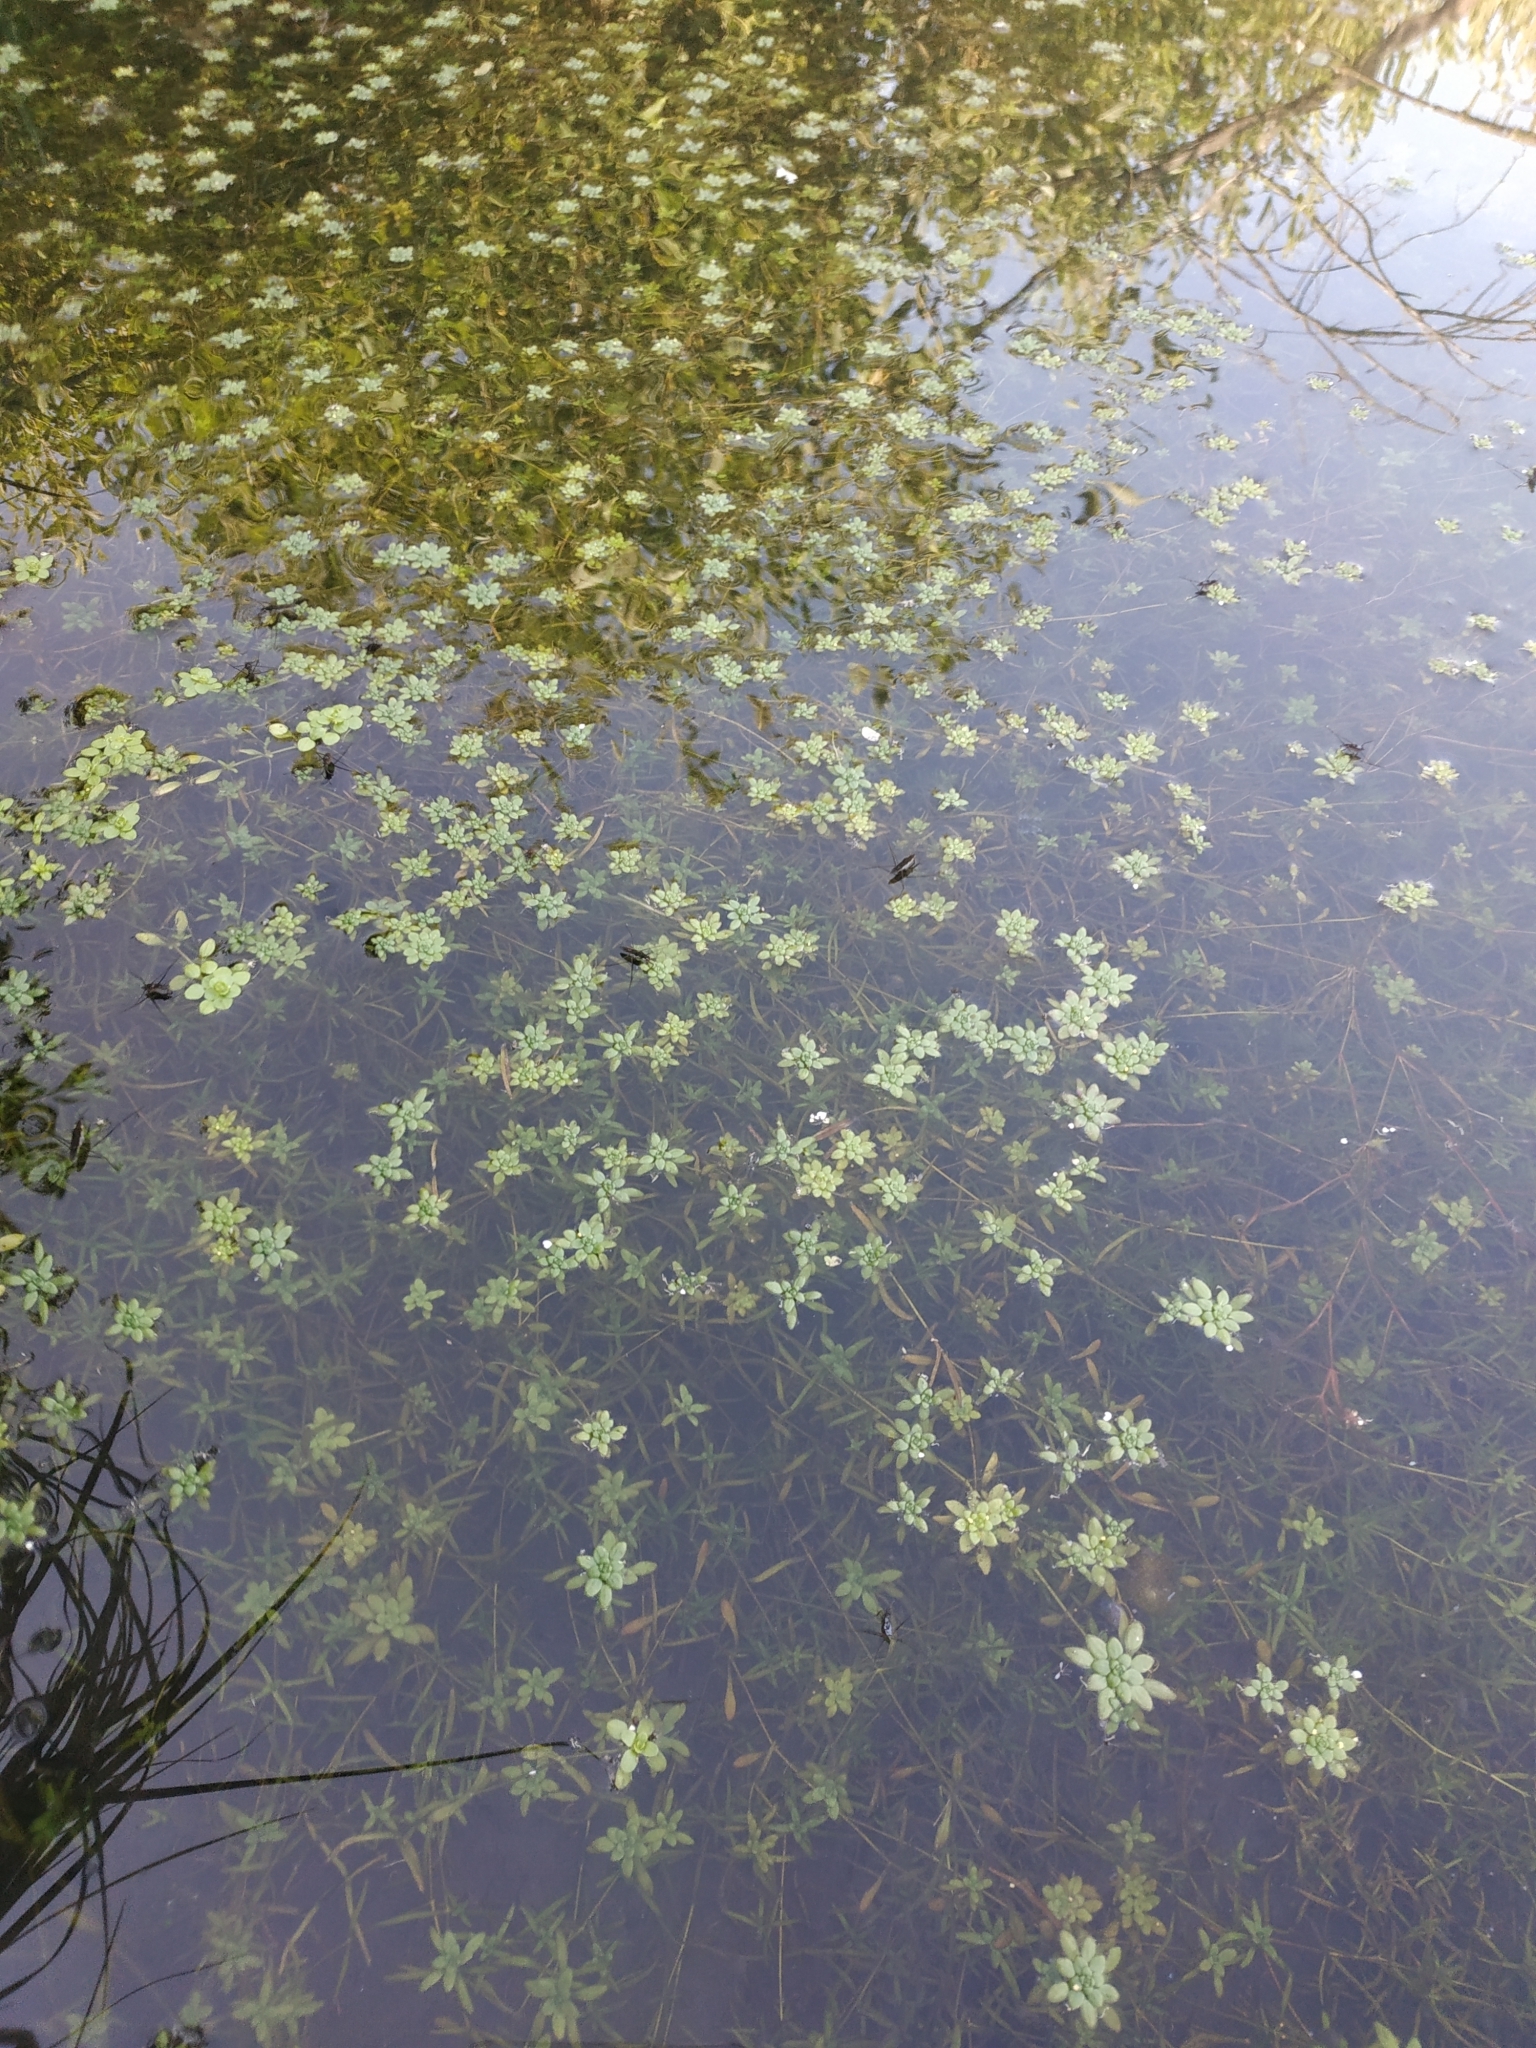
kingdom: Plantae
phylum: Tracheophyta
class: Magnoliopsida
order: Lamiales
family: Plantaginaceae
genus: Callitriche
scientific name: Callitriche palustris
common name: Spring water-starwort
